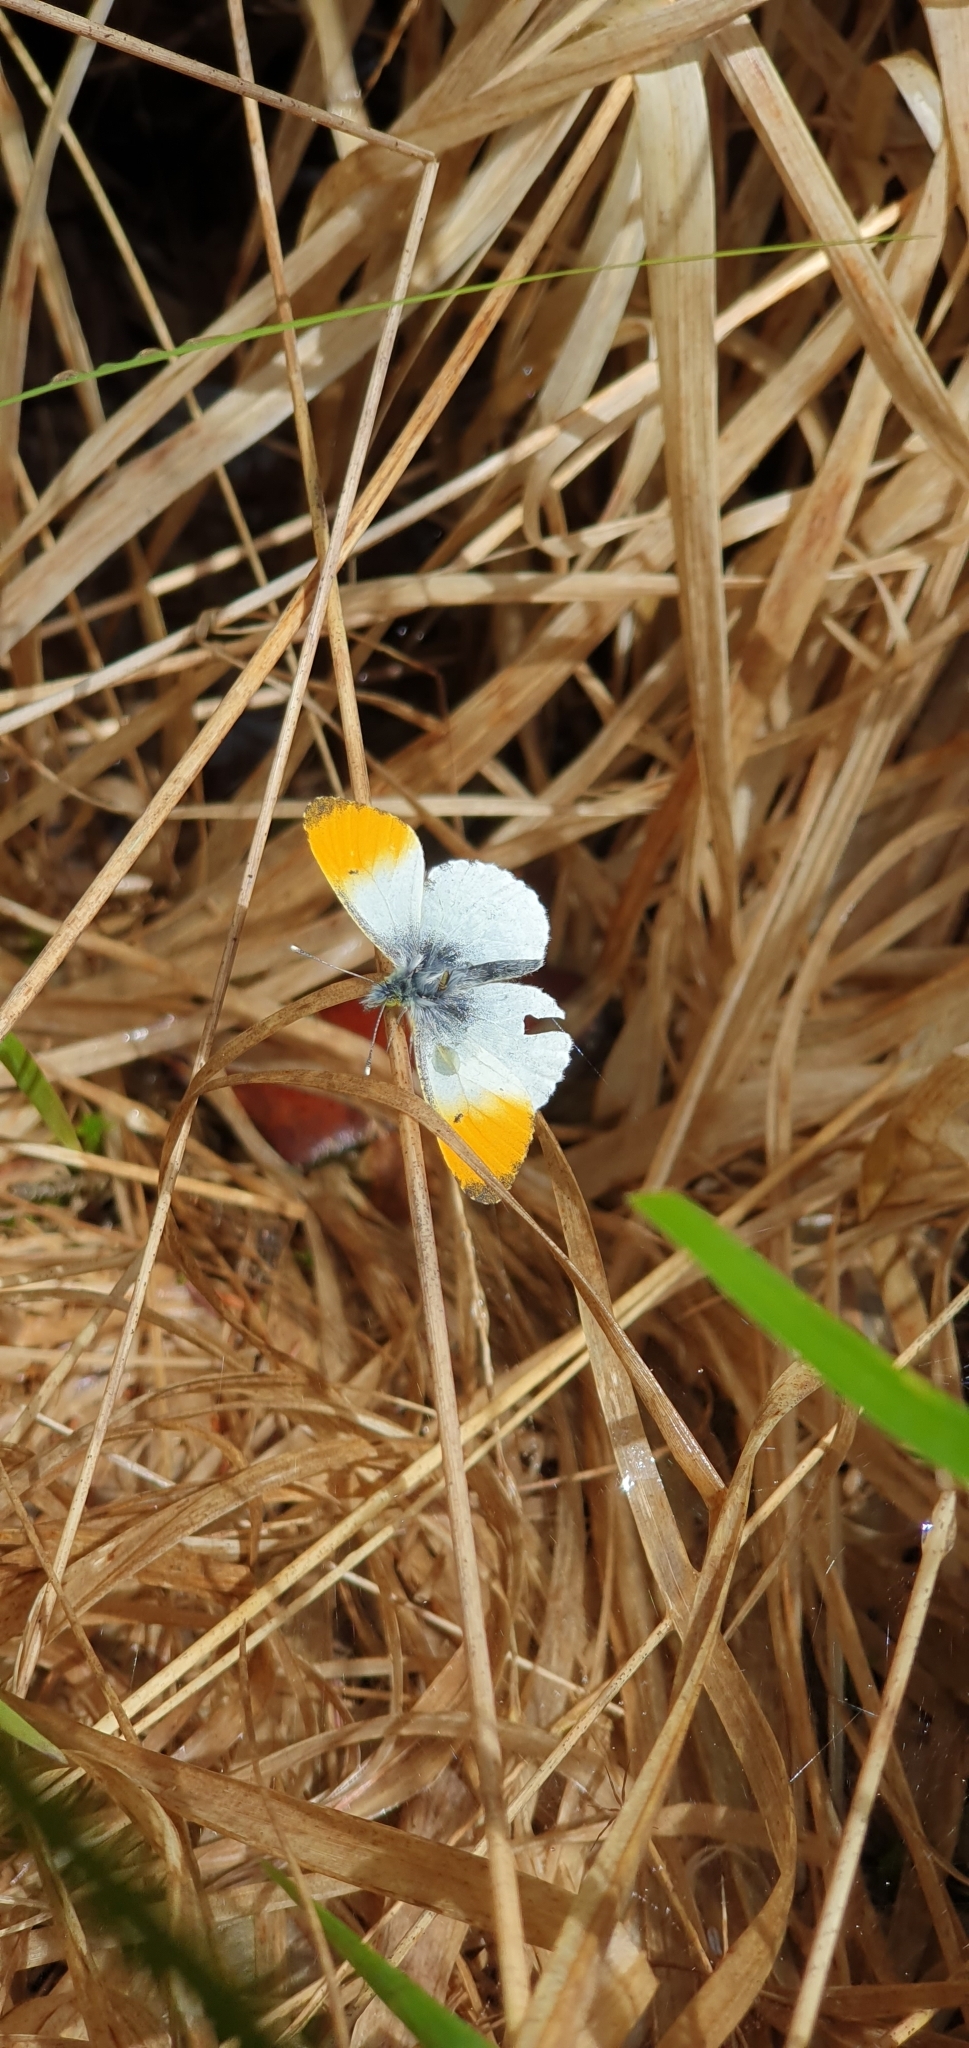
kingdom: Animalia
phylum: Arthropoda
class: Insecta
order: Lepidoptera
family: Pieridae
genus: Anthocharis
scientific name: Anthocharis cardamines
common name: Orange-tip
